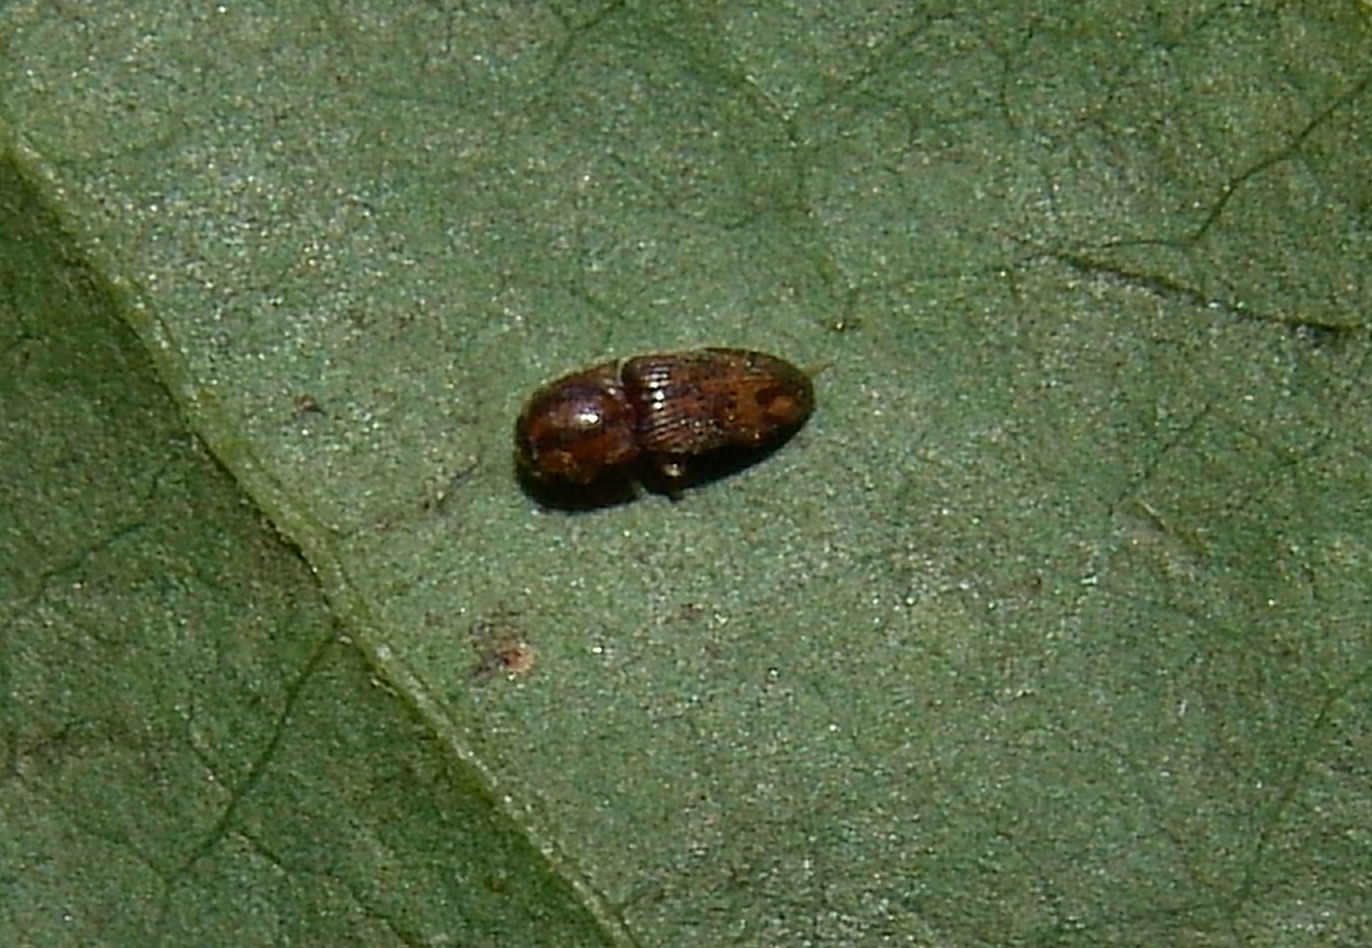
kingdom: Animalia
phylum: Arthropoda
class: Insecta
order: Coleoptera
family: Elateridae
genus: Monocrepidius
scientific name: Monocrepidius bellus
